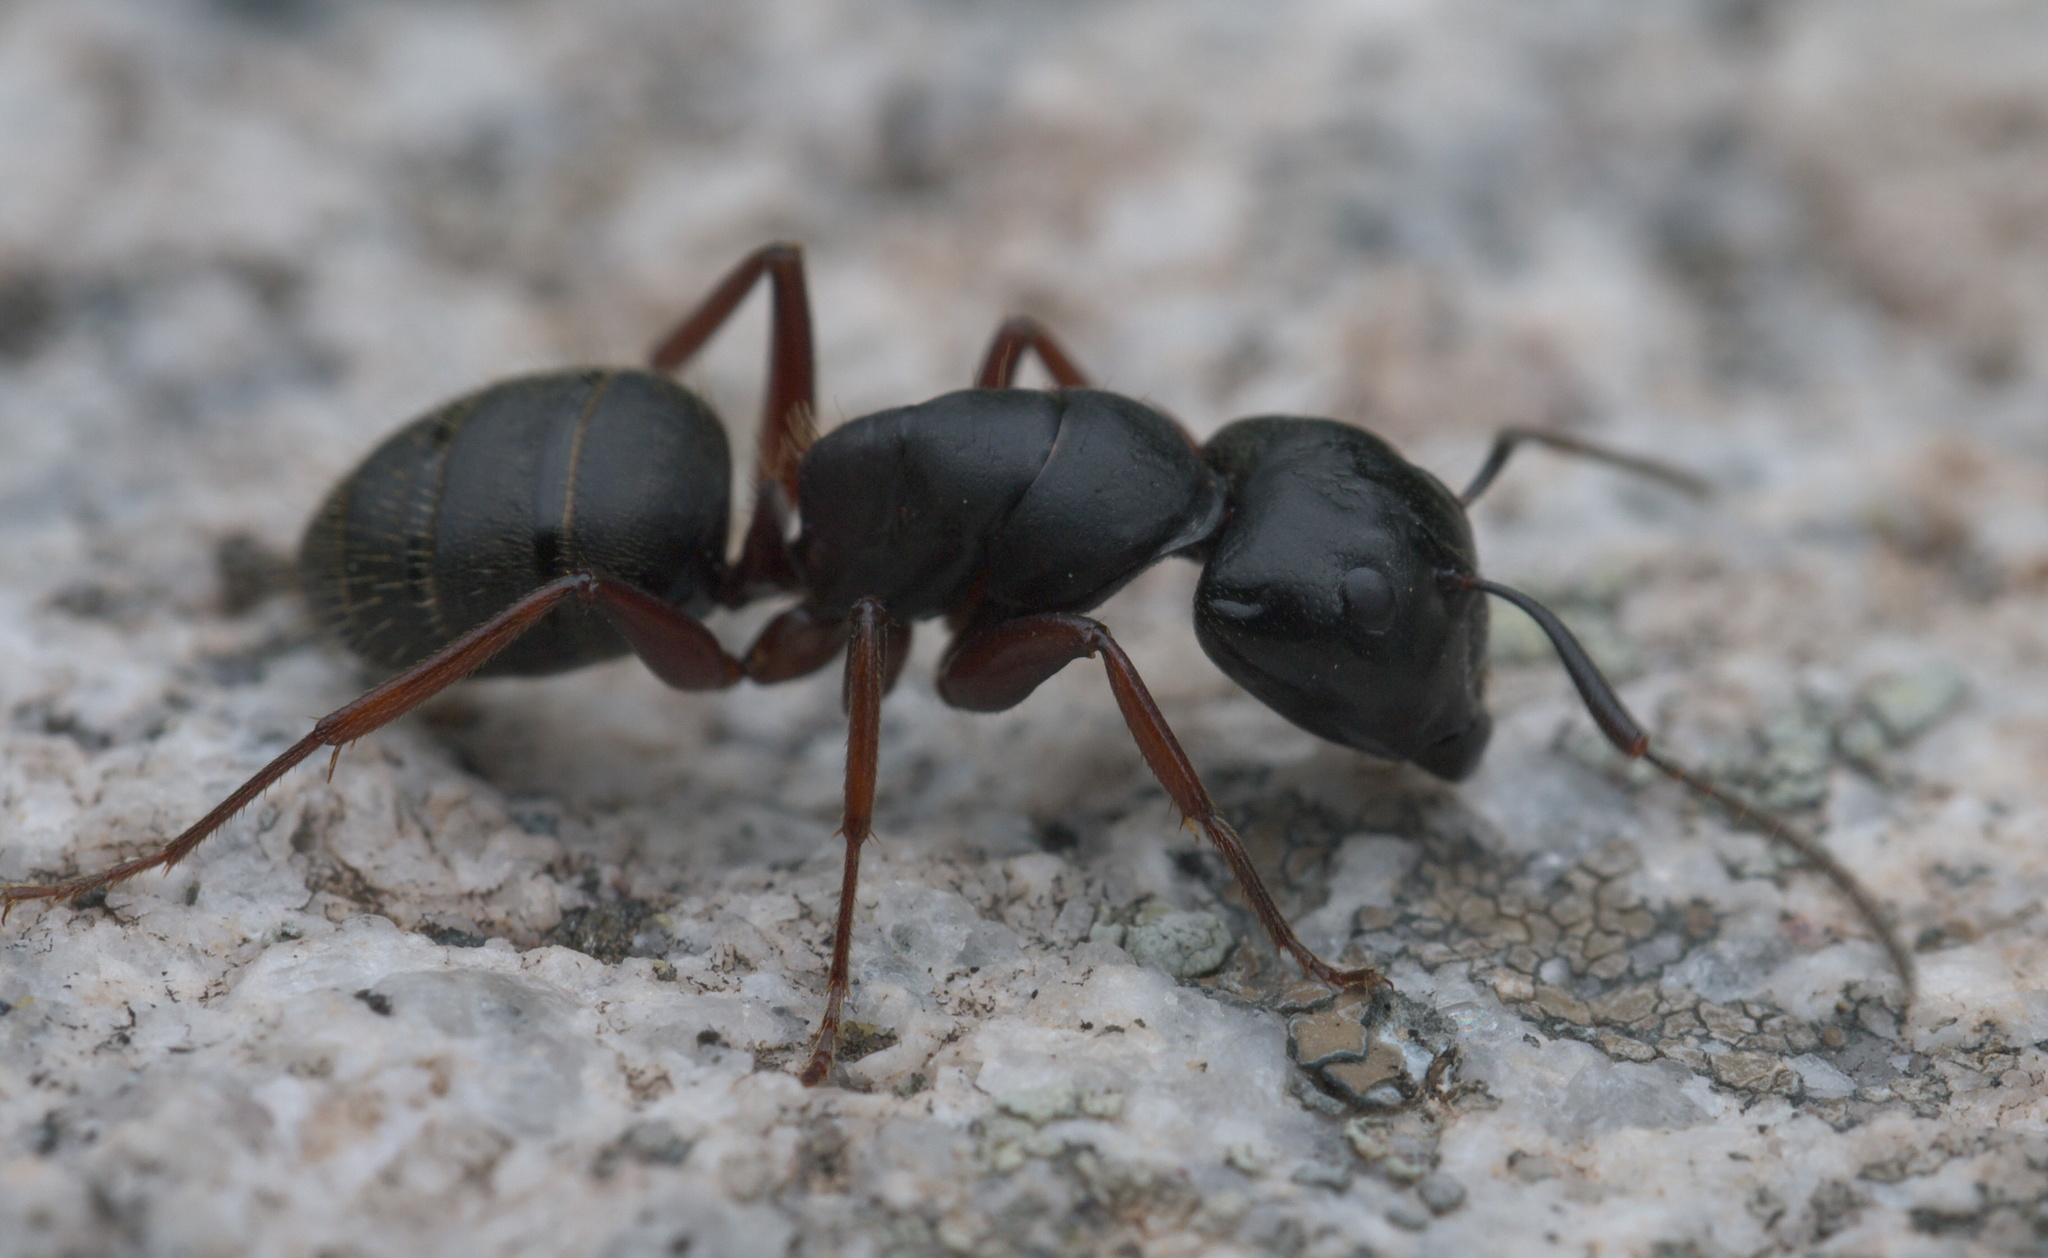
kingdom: Animalia
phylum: Arthropoda
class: Insecta
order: Hymenoptera
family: Formicidae
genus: Camponotus
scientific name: Camponotus modoc
